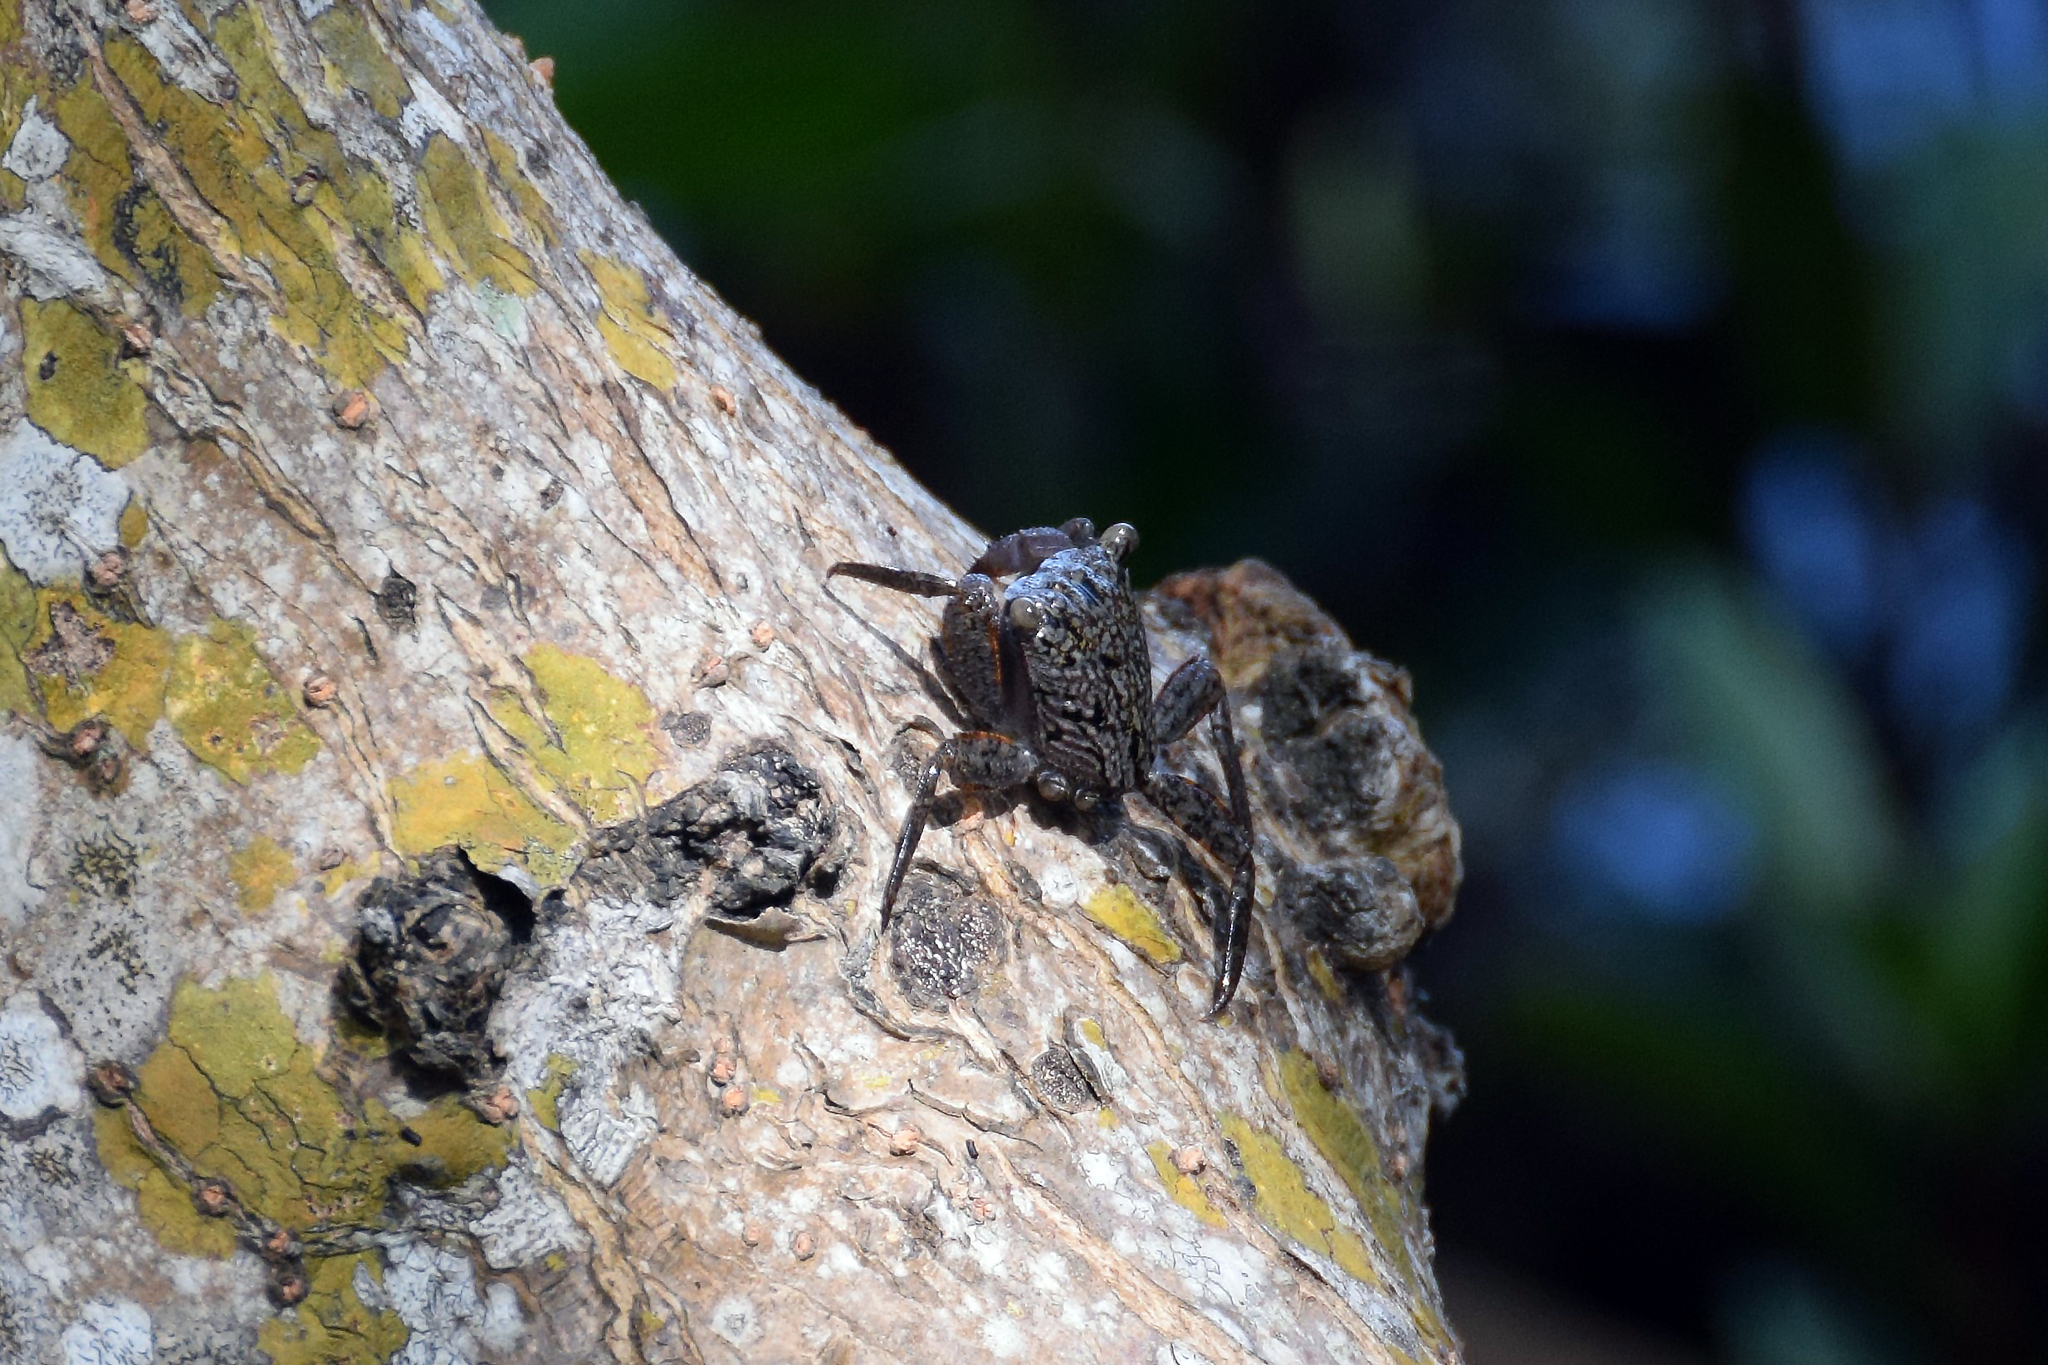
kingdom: Animalia
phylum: Arthropoda
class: Malacostraca
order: Decapoda
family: Sesarmidae
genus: Aratus
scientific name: Aratus pisonii
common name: Mangrove crab
